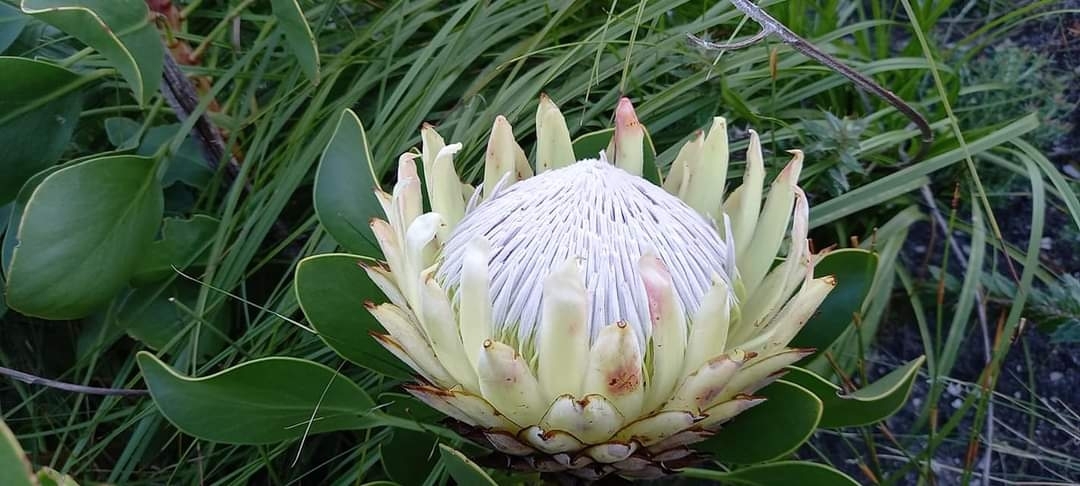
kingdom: Plantae
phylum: Tracheophyta
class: Magnoliopsida
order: Proteales
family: Proteaceae
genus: Protea
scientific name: Protea cynaroides
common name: King protea
